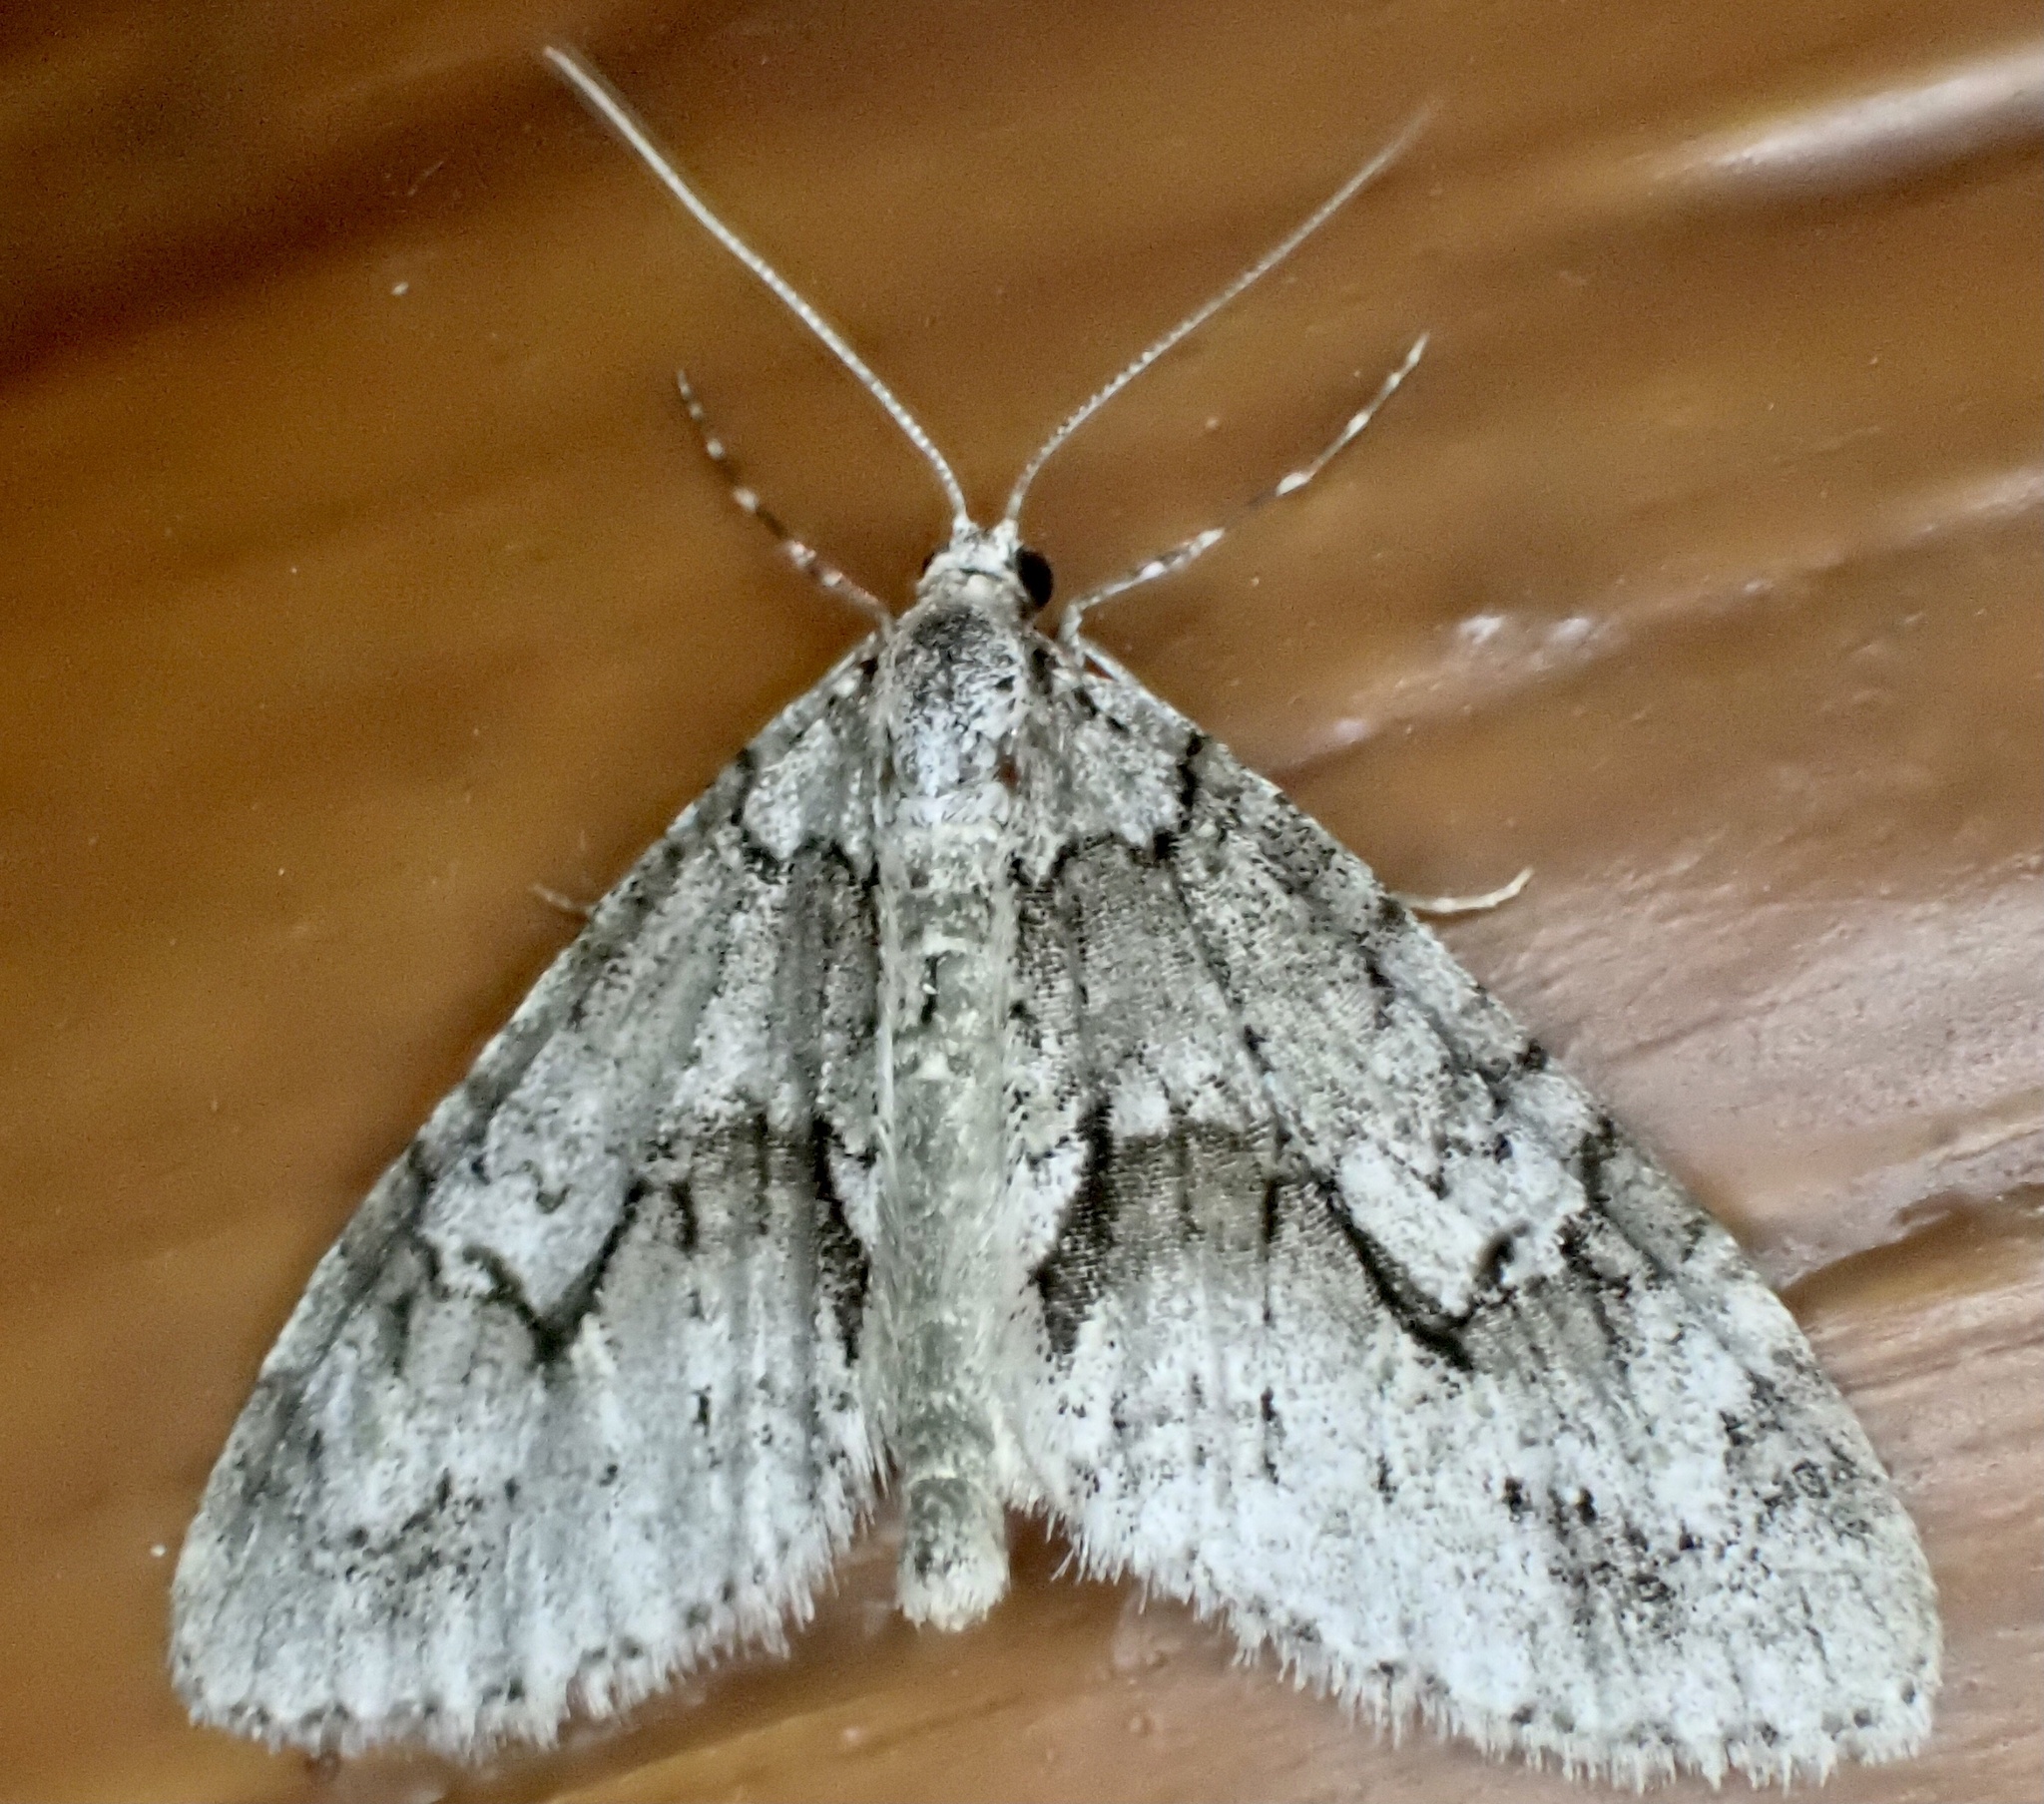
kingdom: Animalia
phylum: Arthropoda
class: Insecta
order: Lepidoptera
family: Geometridae
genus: Cladara
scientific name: Cladara limitaria
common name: Mottled gray carpet
